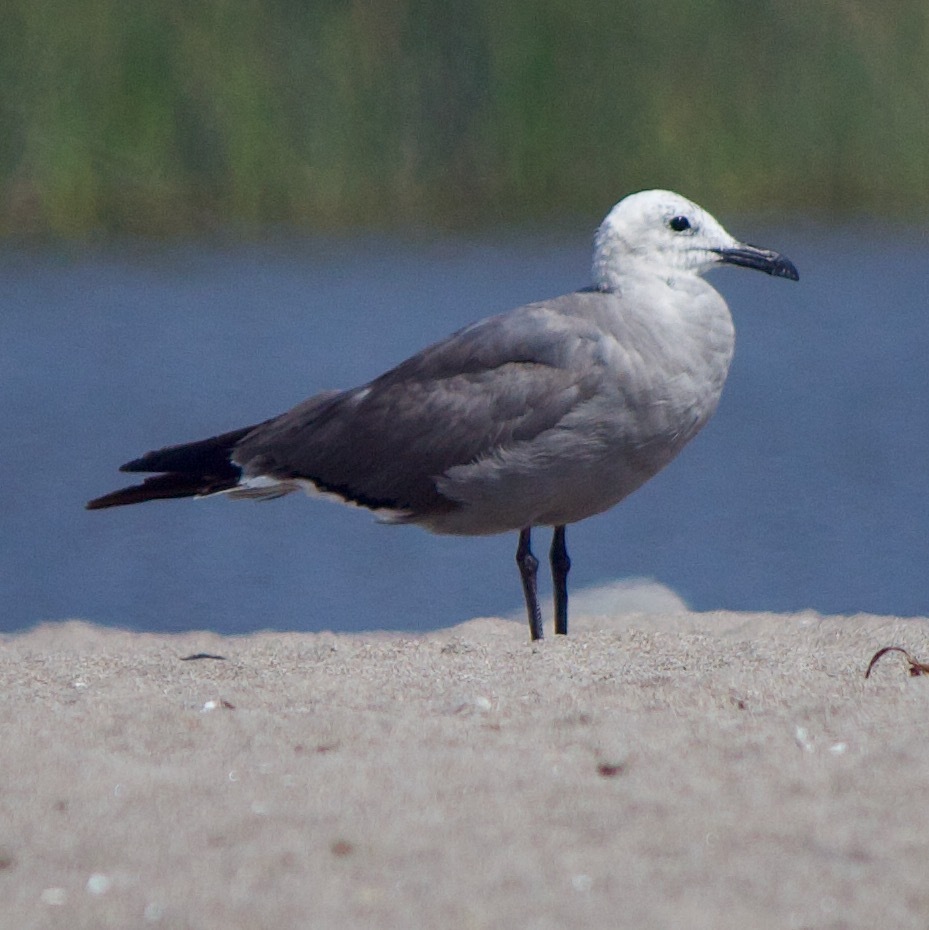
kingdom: Animalia
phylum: Chordata
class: Aves
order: Charadriiformes
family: Laridae
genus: Leucophaeus
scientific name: Leucophaeus modestus
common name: Gray gull
